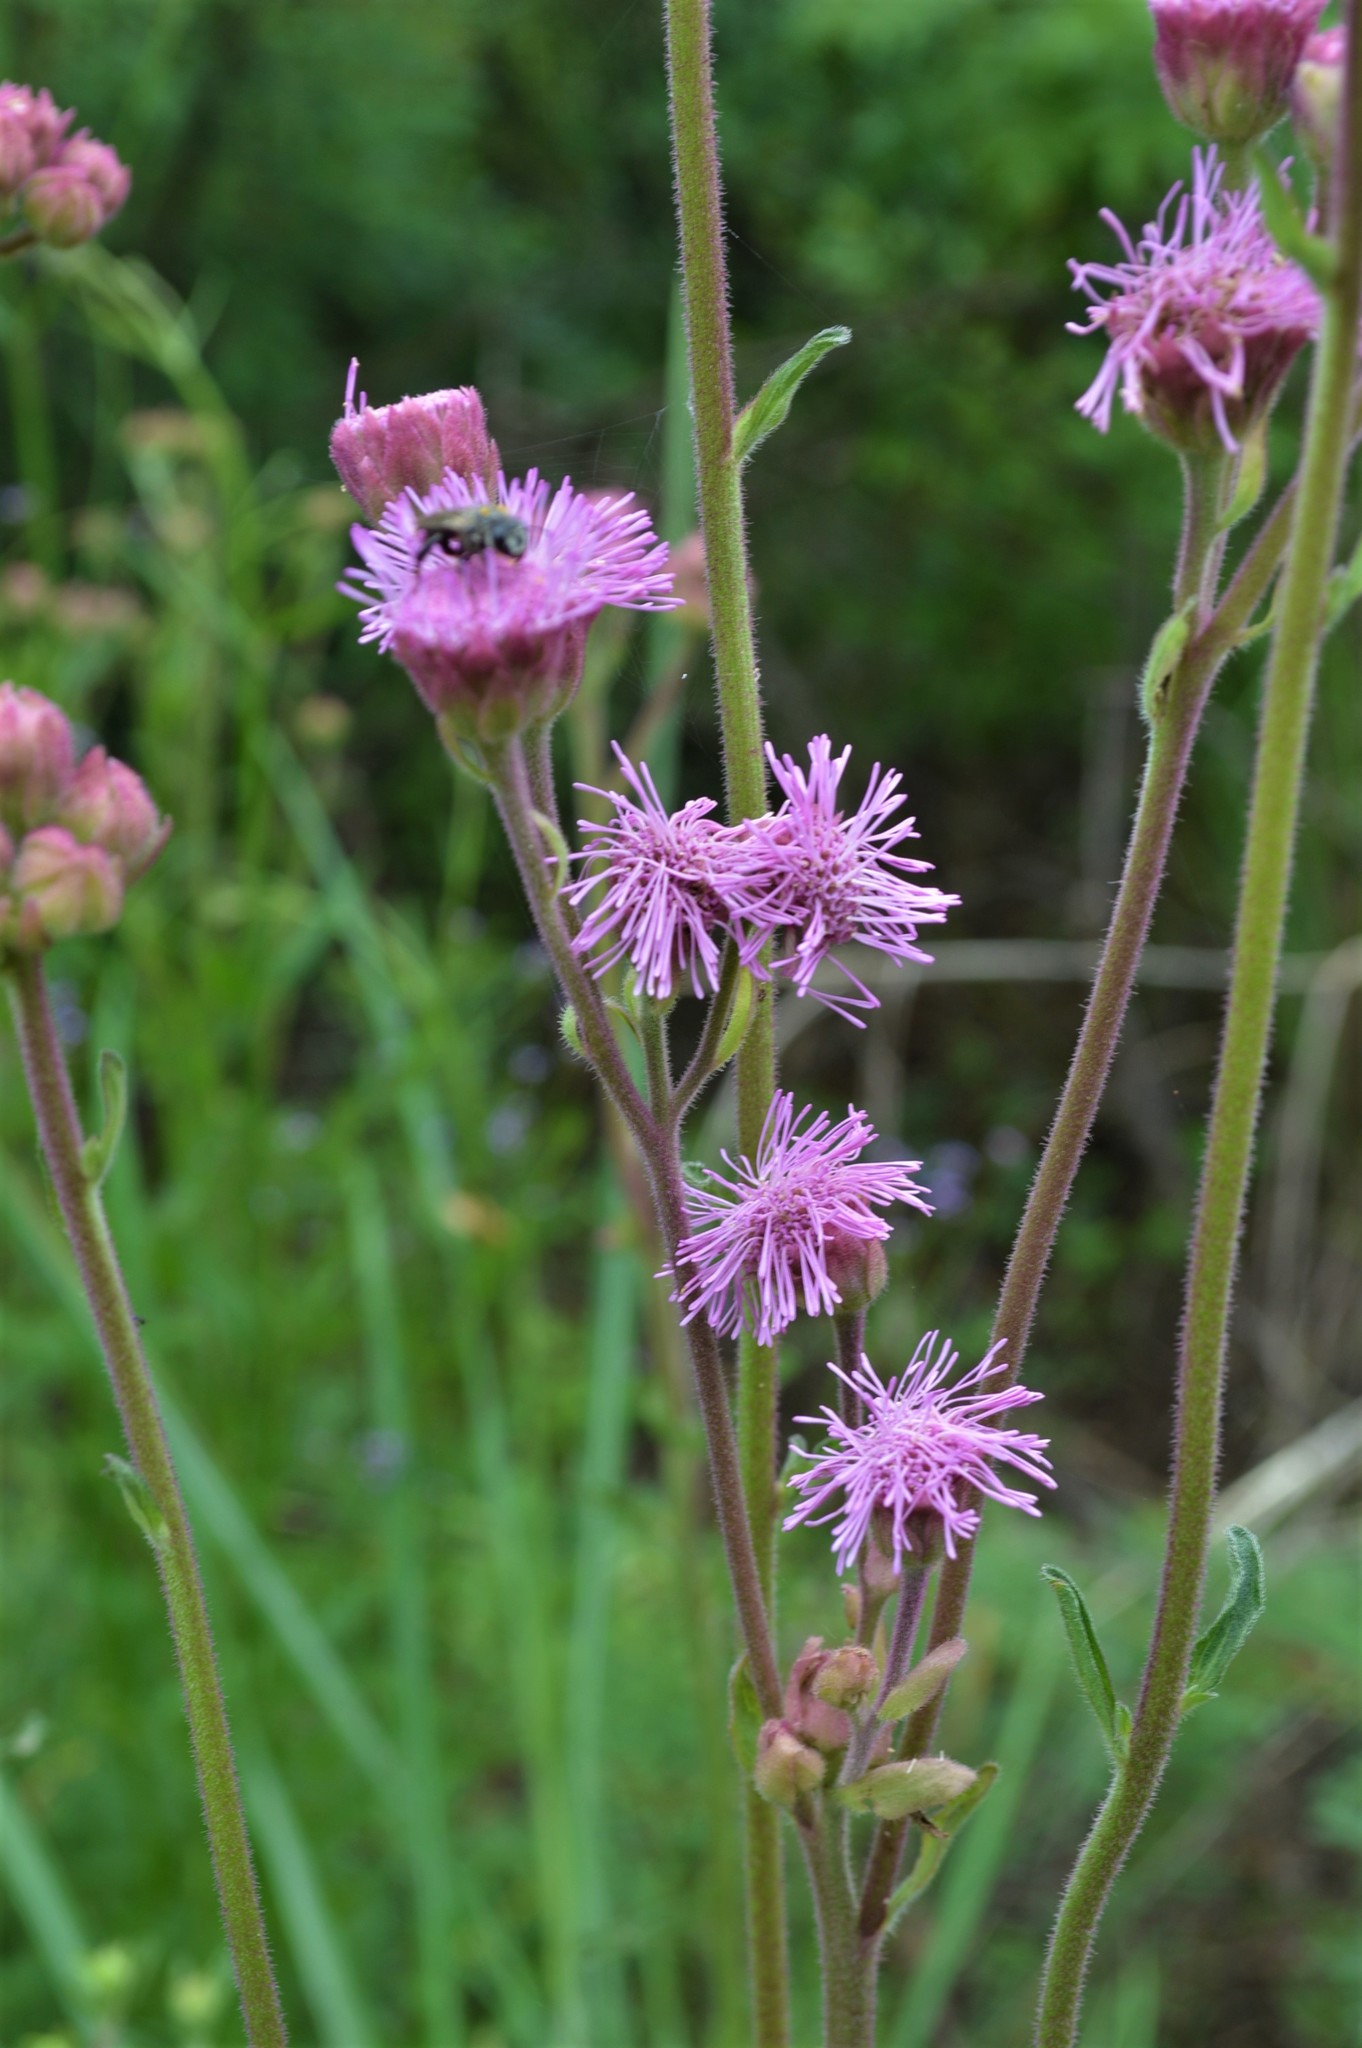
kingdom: Plantae
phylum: Tracheophyta
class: Magnoliopsida
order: Asterales
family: Asteraceae
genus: Campuloclinium
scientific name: Campuloclinium macrocephalum
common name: Pompomweed
